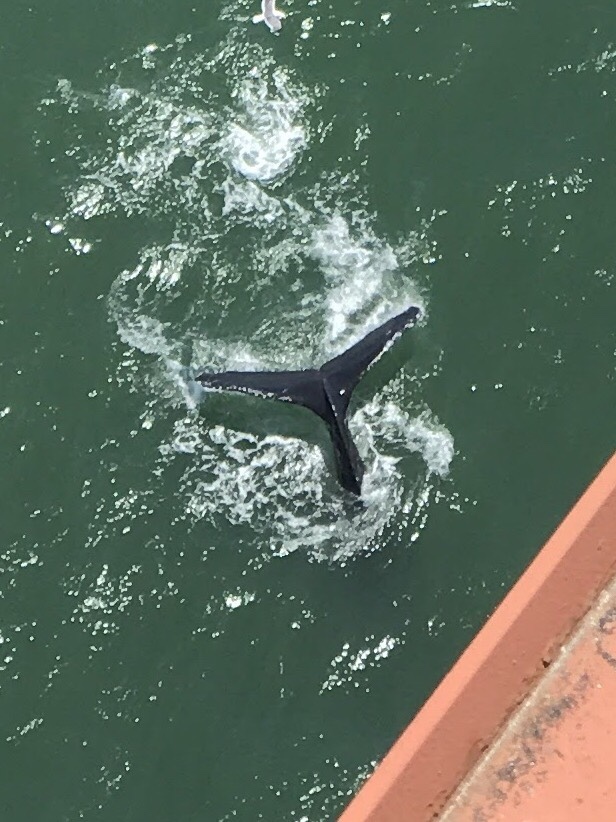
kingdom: Animalia
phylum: Chordata
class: Mammalia
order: Cetacea
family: Balaenopteridae
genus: Megaptera
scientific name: Megaptera novaeangliae
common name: Humpback whale
